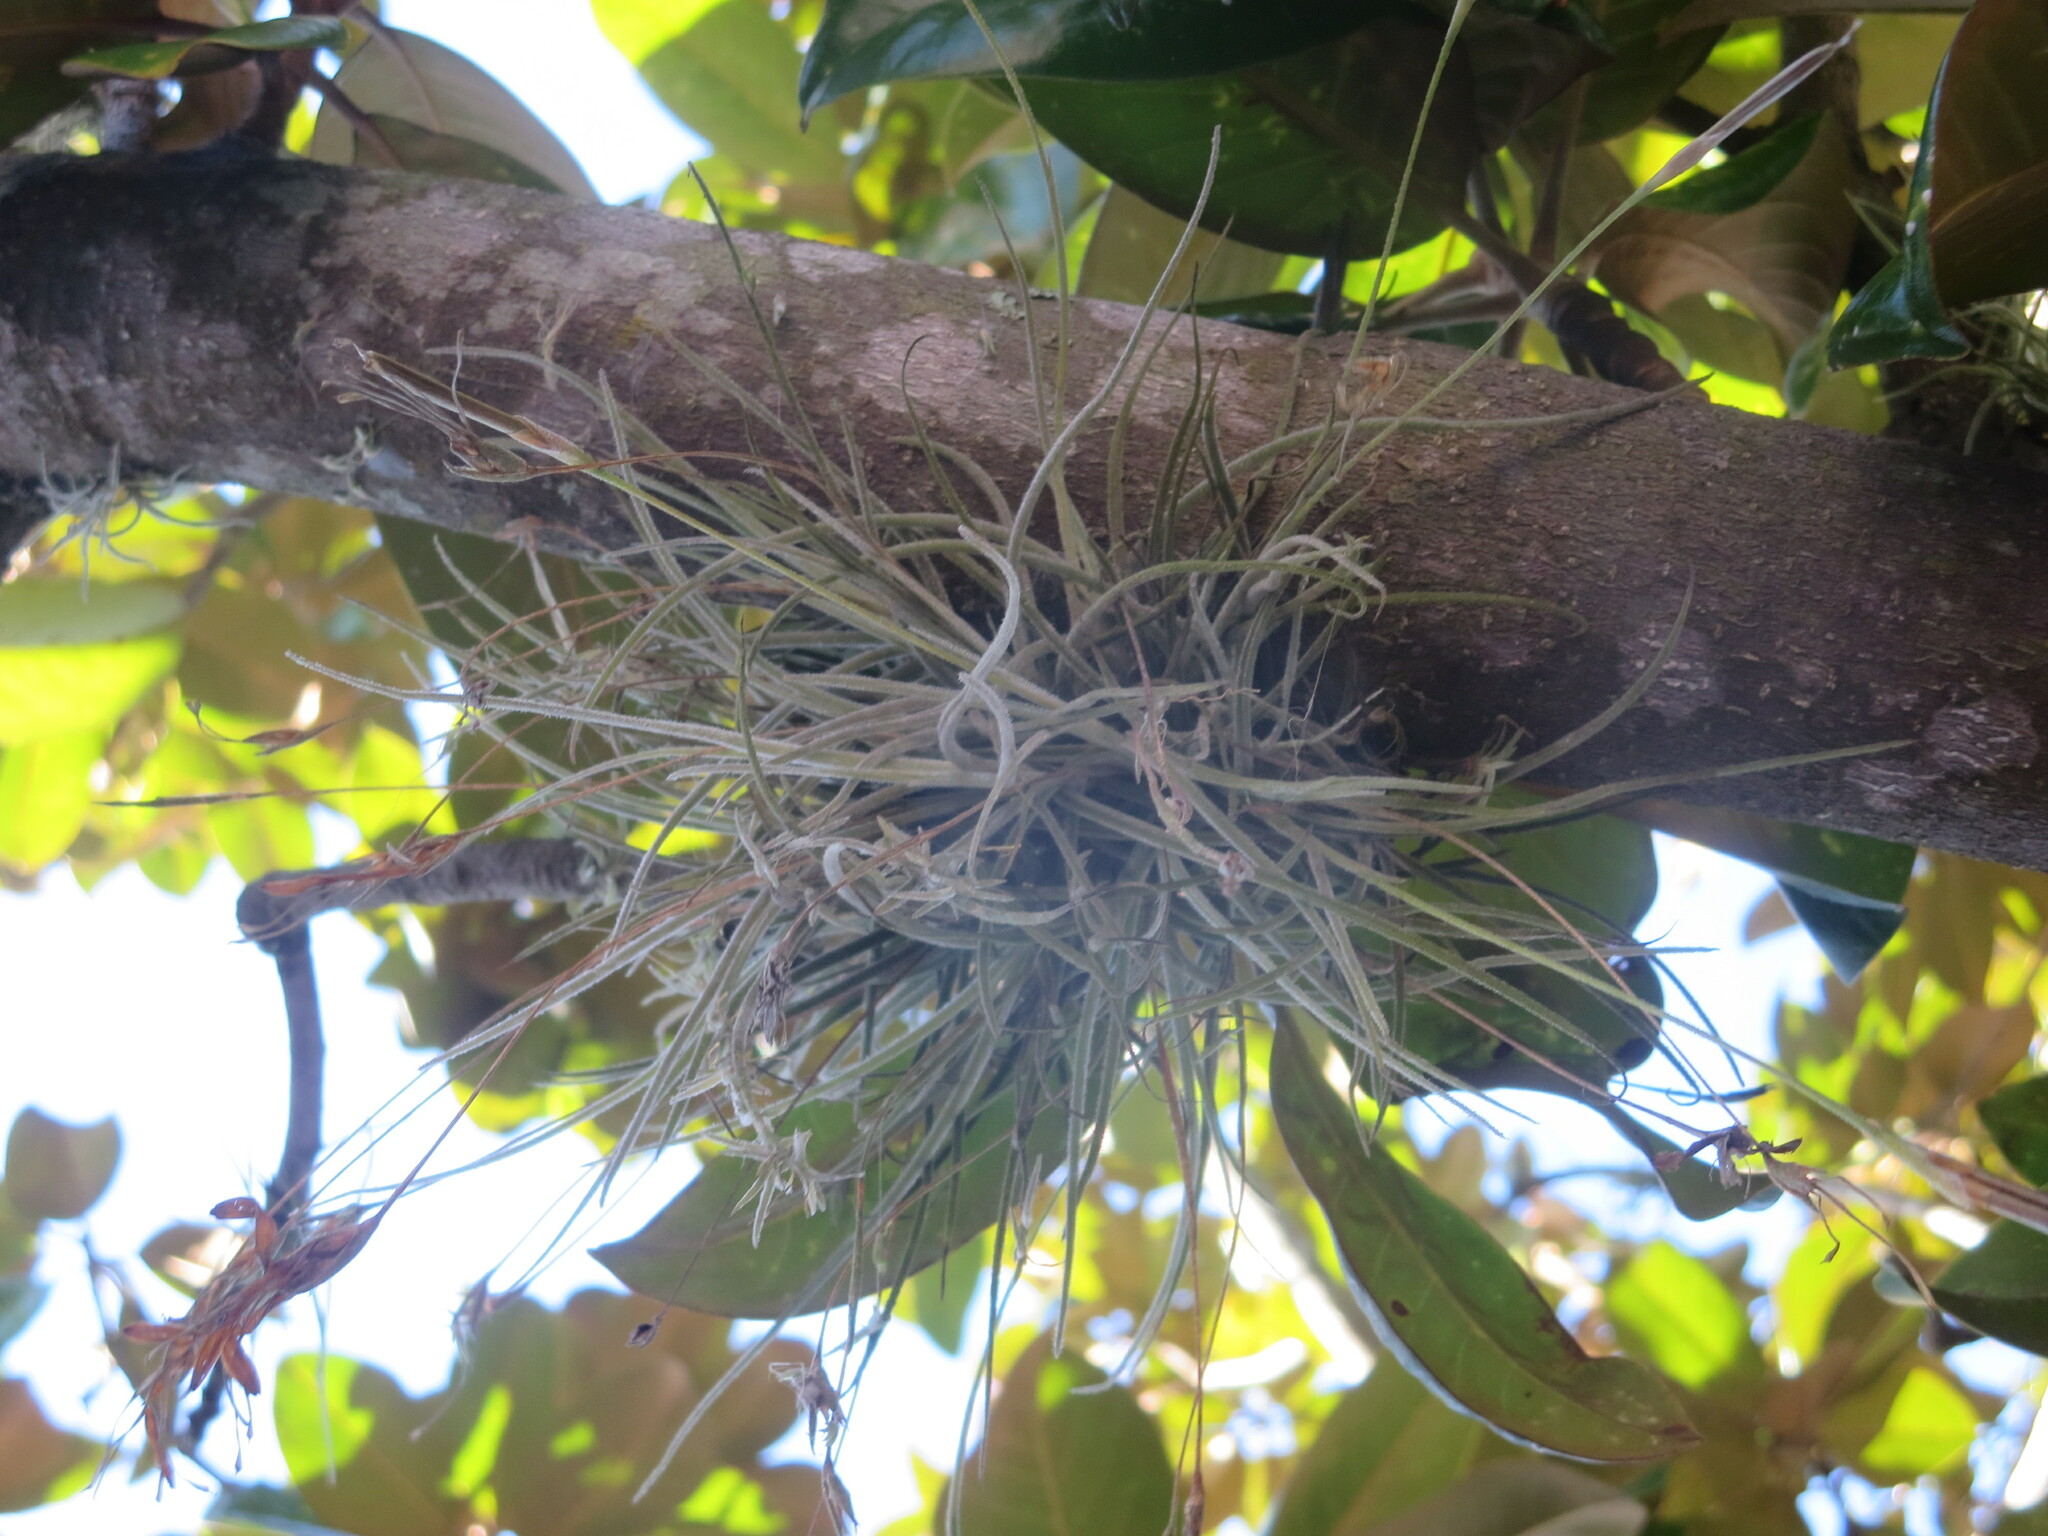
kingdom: Plantae
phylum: Tracheophyta
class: Liliopsida
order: Poales
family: Bromeliaceae
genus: Tillandsia
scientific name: Tillandsia recurvata
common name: Small ballmoss
